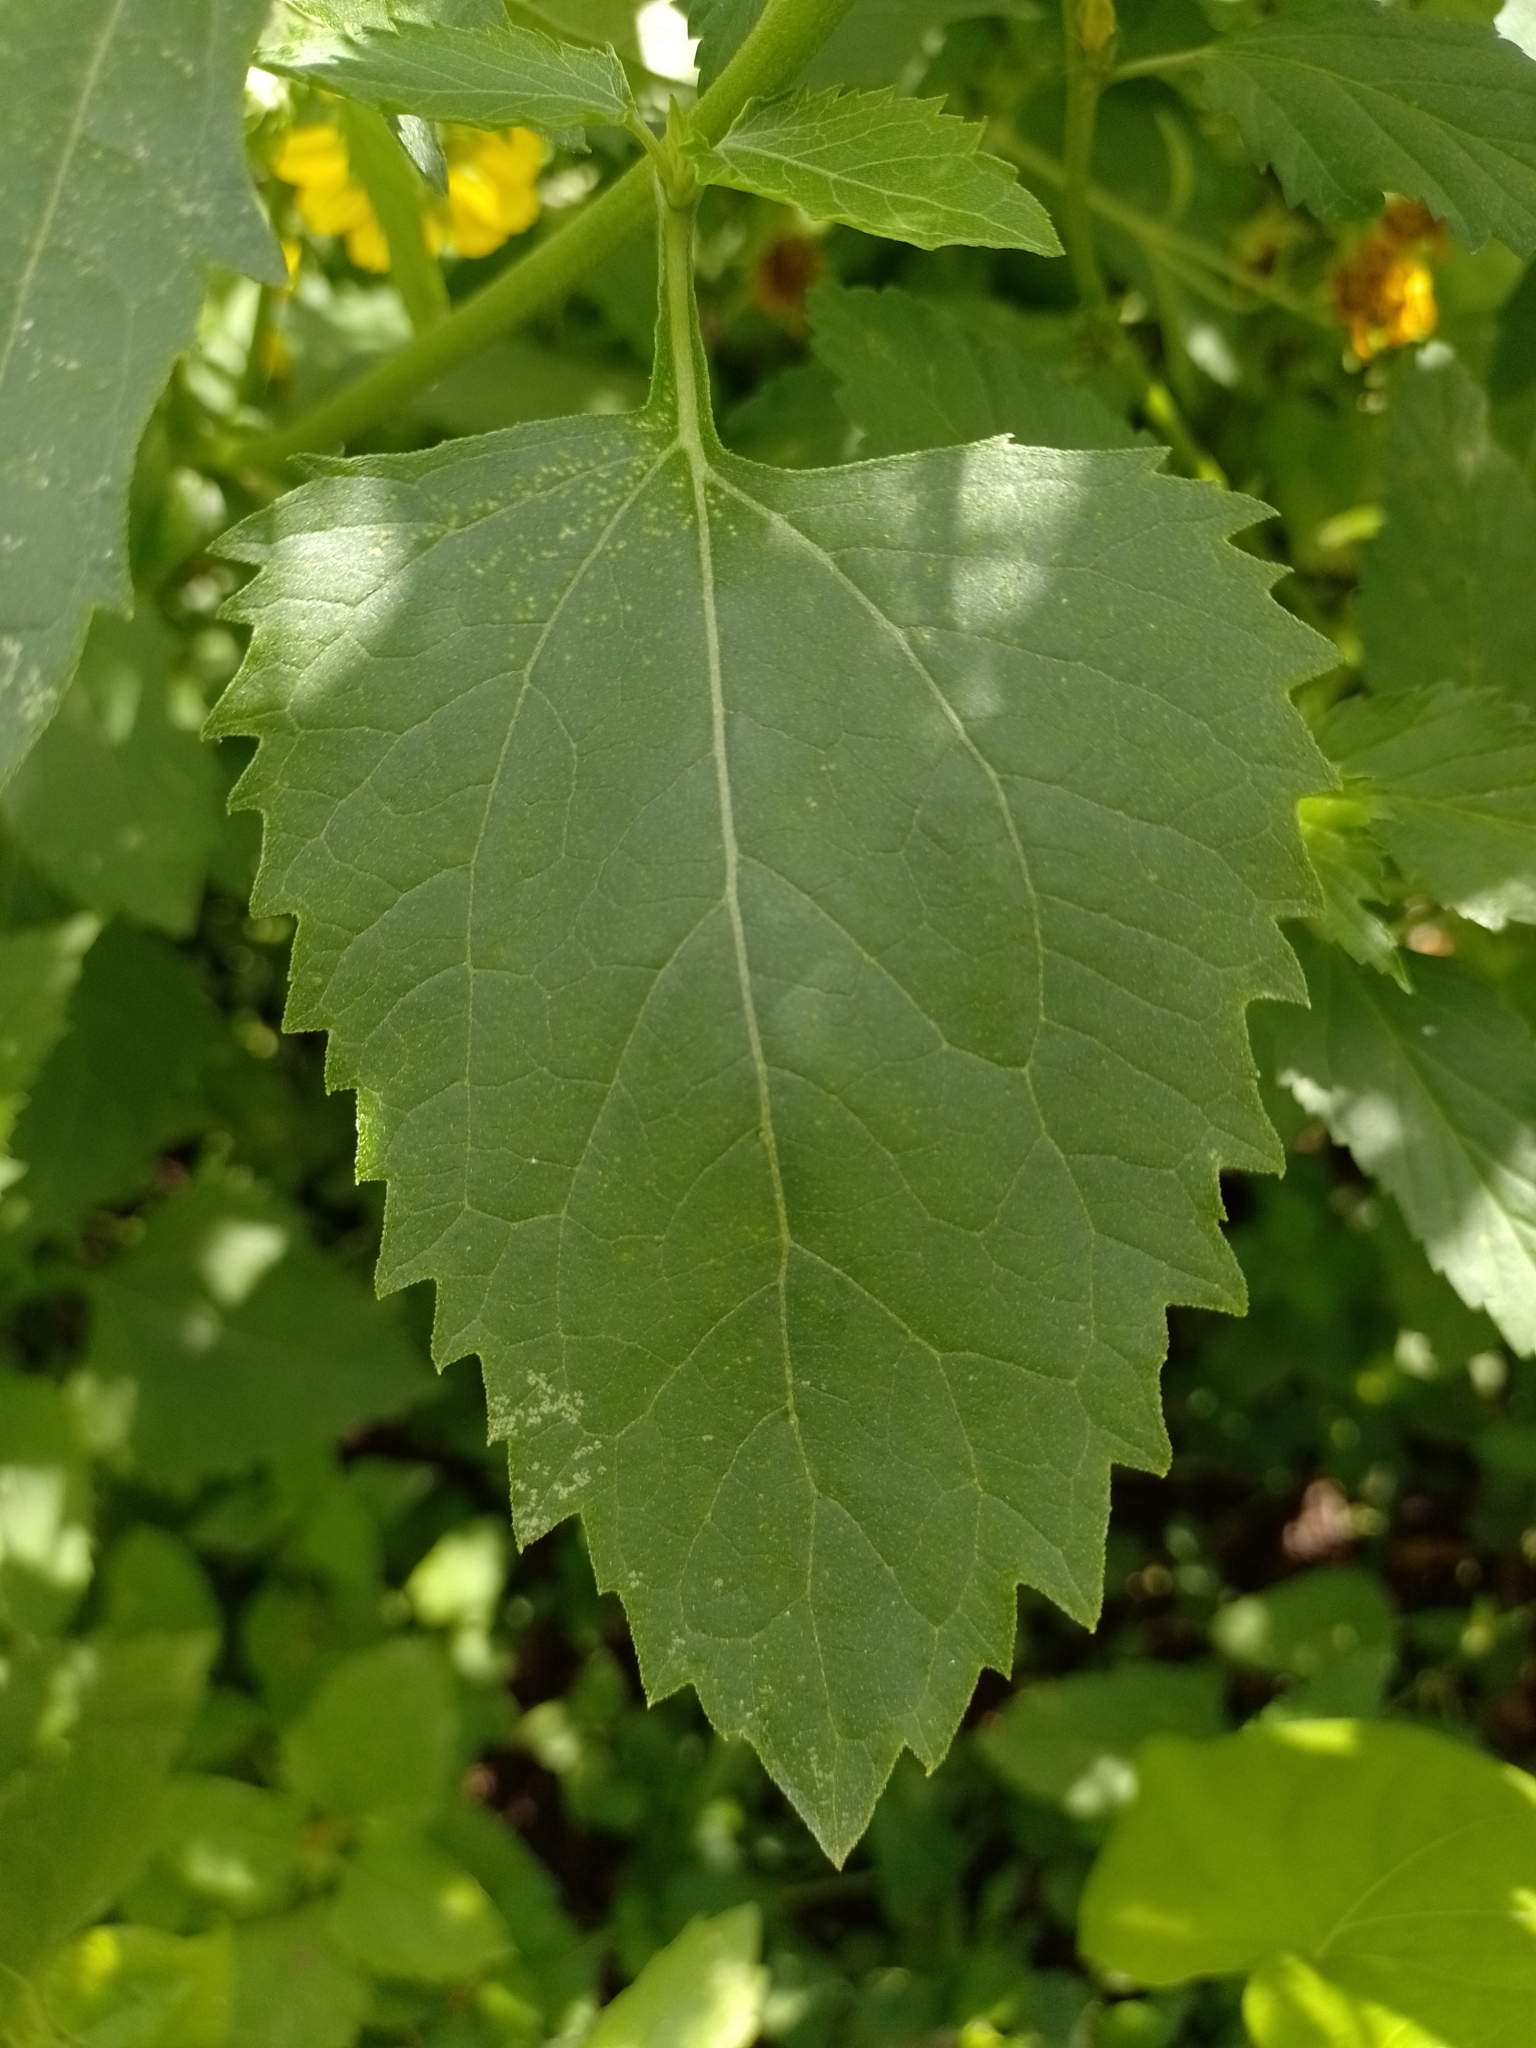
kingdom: Plantae
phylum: Tracheophyta
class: Magnoliopsida
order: Asterales
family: Asteraceae
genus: Verbesina
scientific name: Verbesina encelioides
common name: Golden crownbeard
